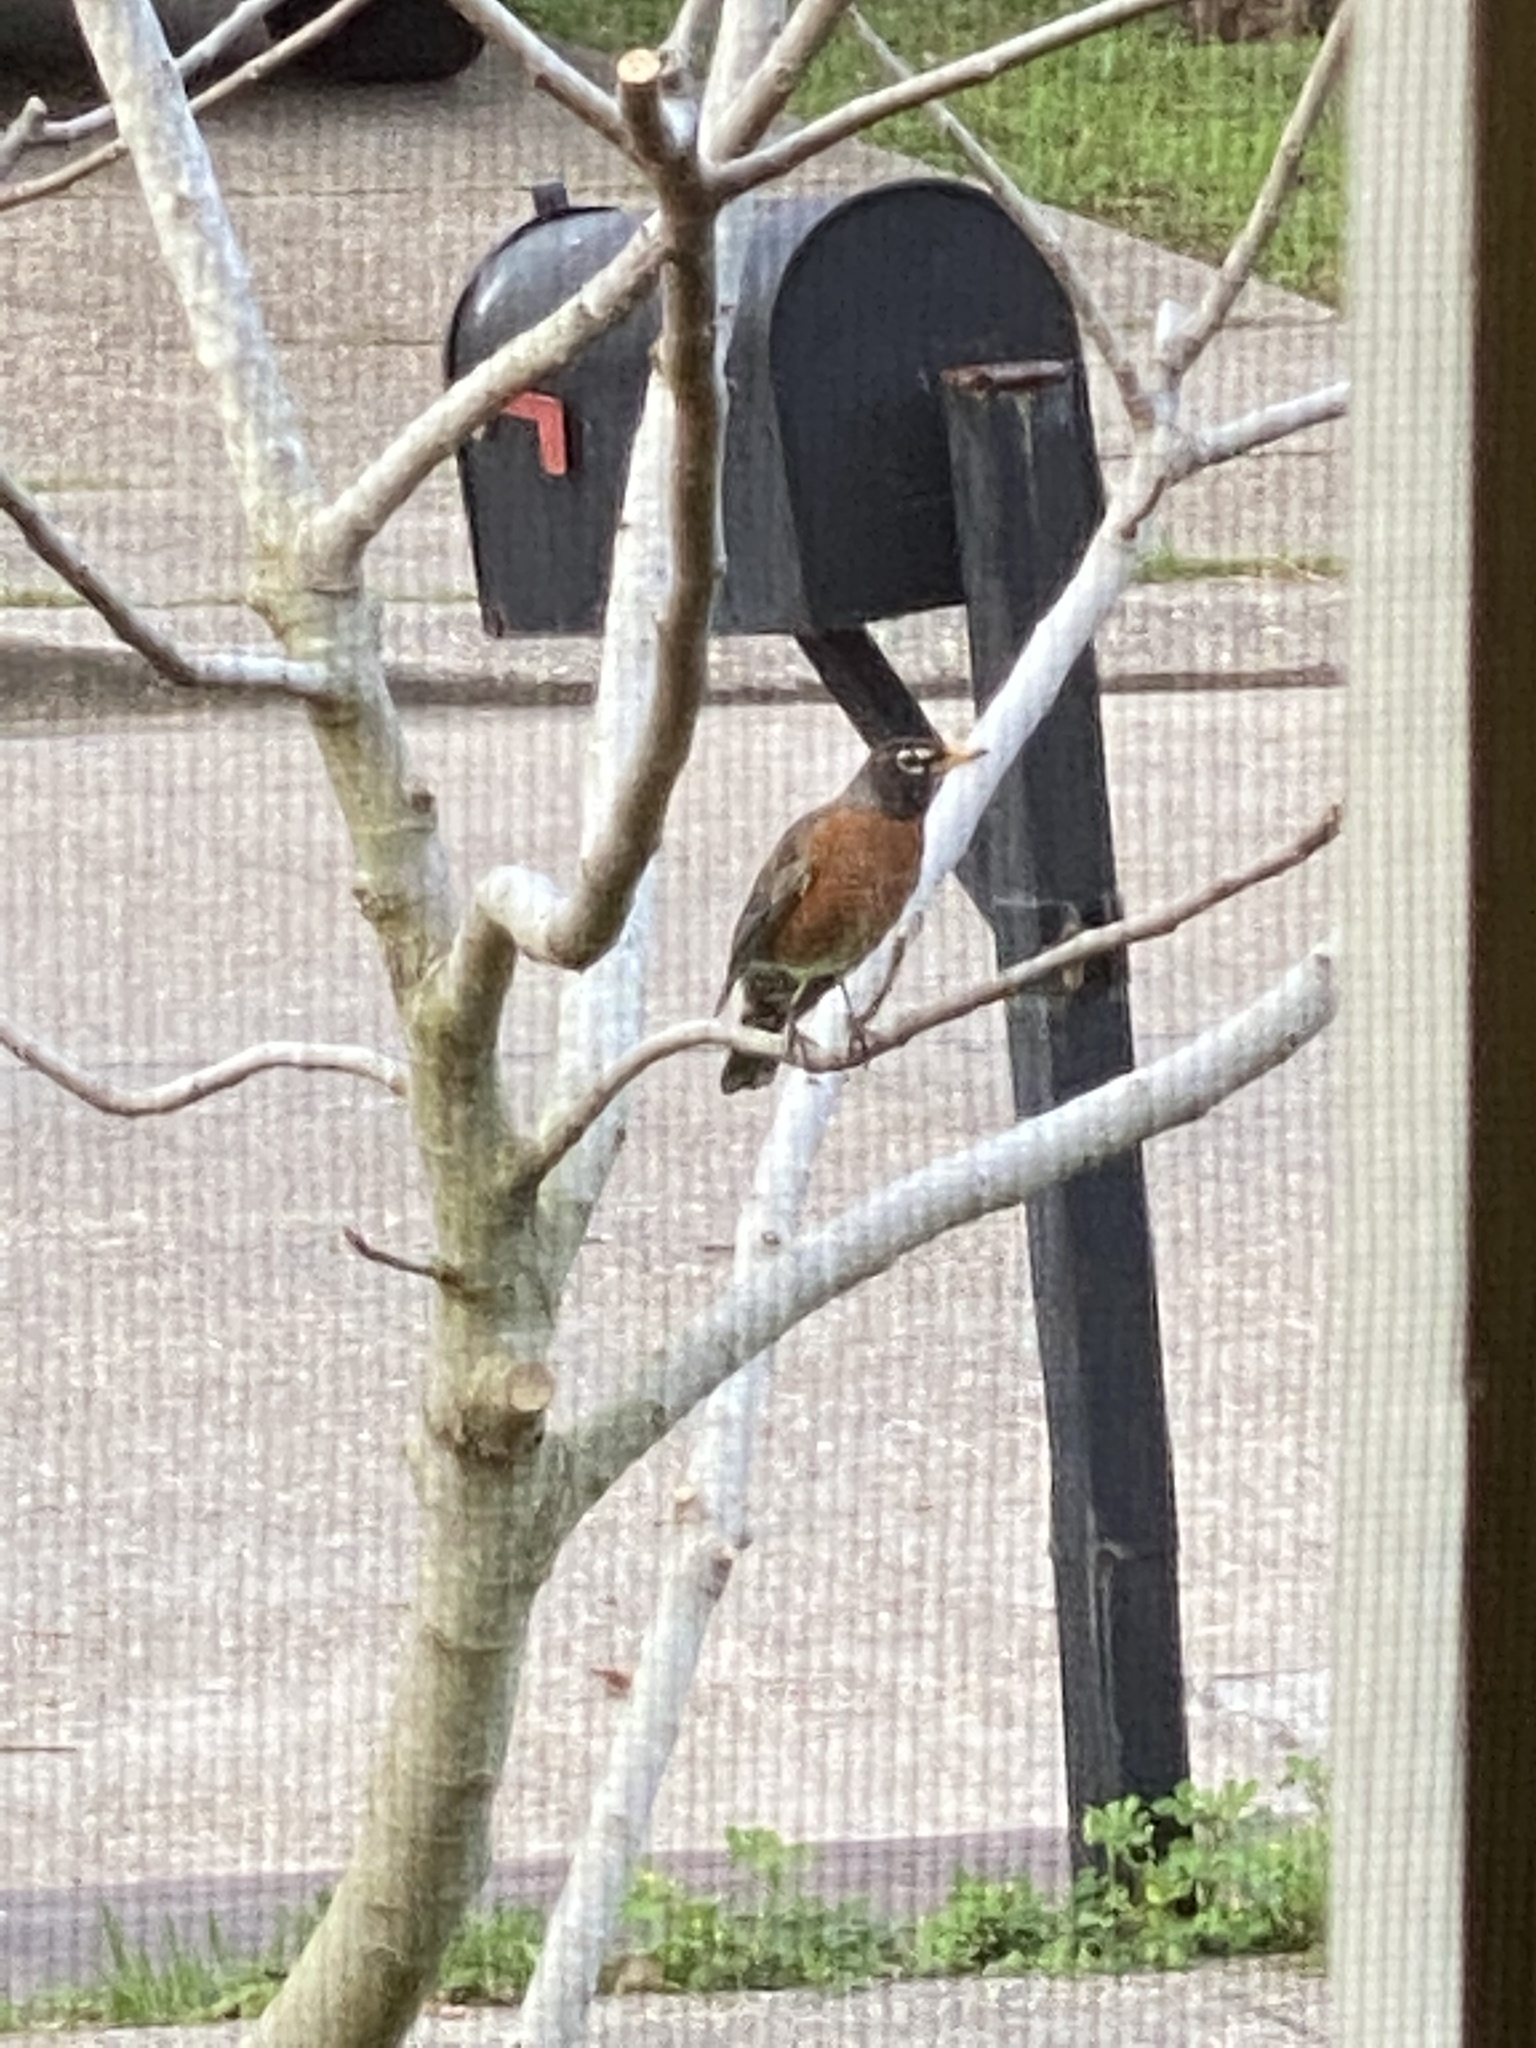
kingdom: Animalia
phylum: Chordata
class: Aves
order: Passeriformes
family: Turdidae
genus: Turdus
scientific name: Turdus migratorius
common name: American robin
